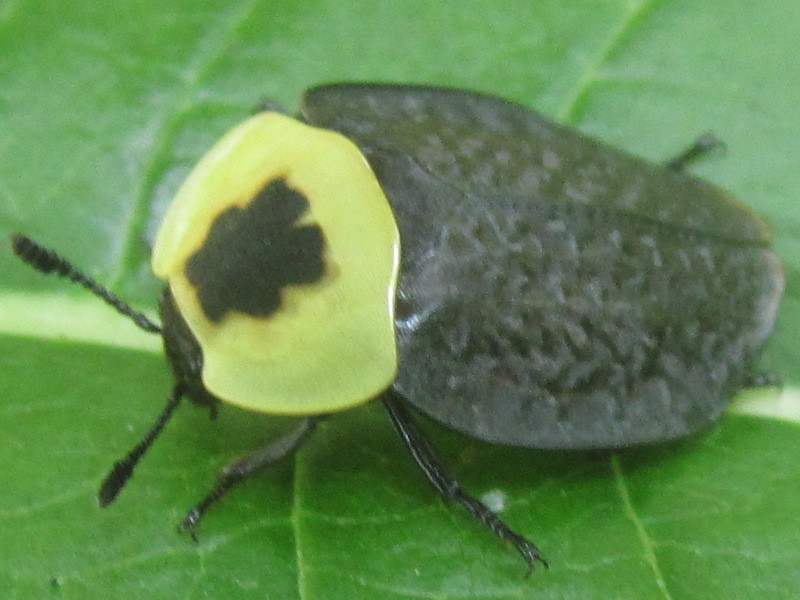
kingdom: Animalia
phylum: Arthropoda
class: Insecta
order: Coleoptera
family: Staphylinidae
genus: Necrophila
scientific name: Necrophila americana
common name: American carrion beetle
